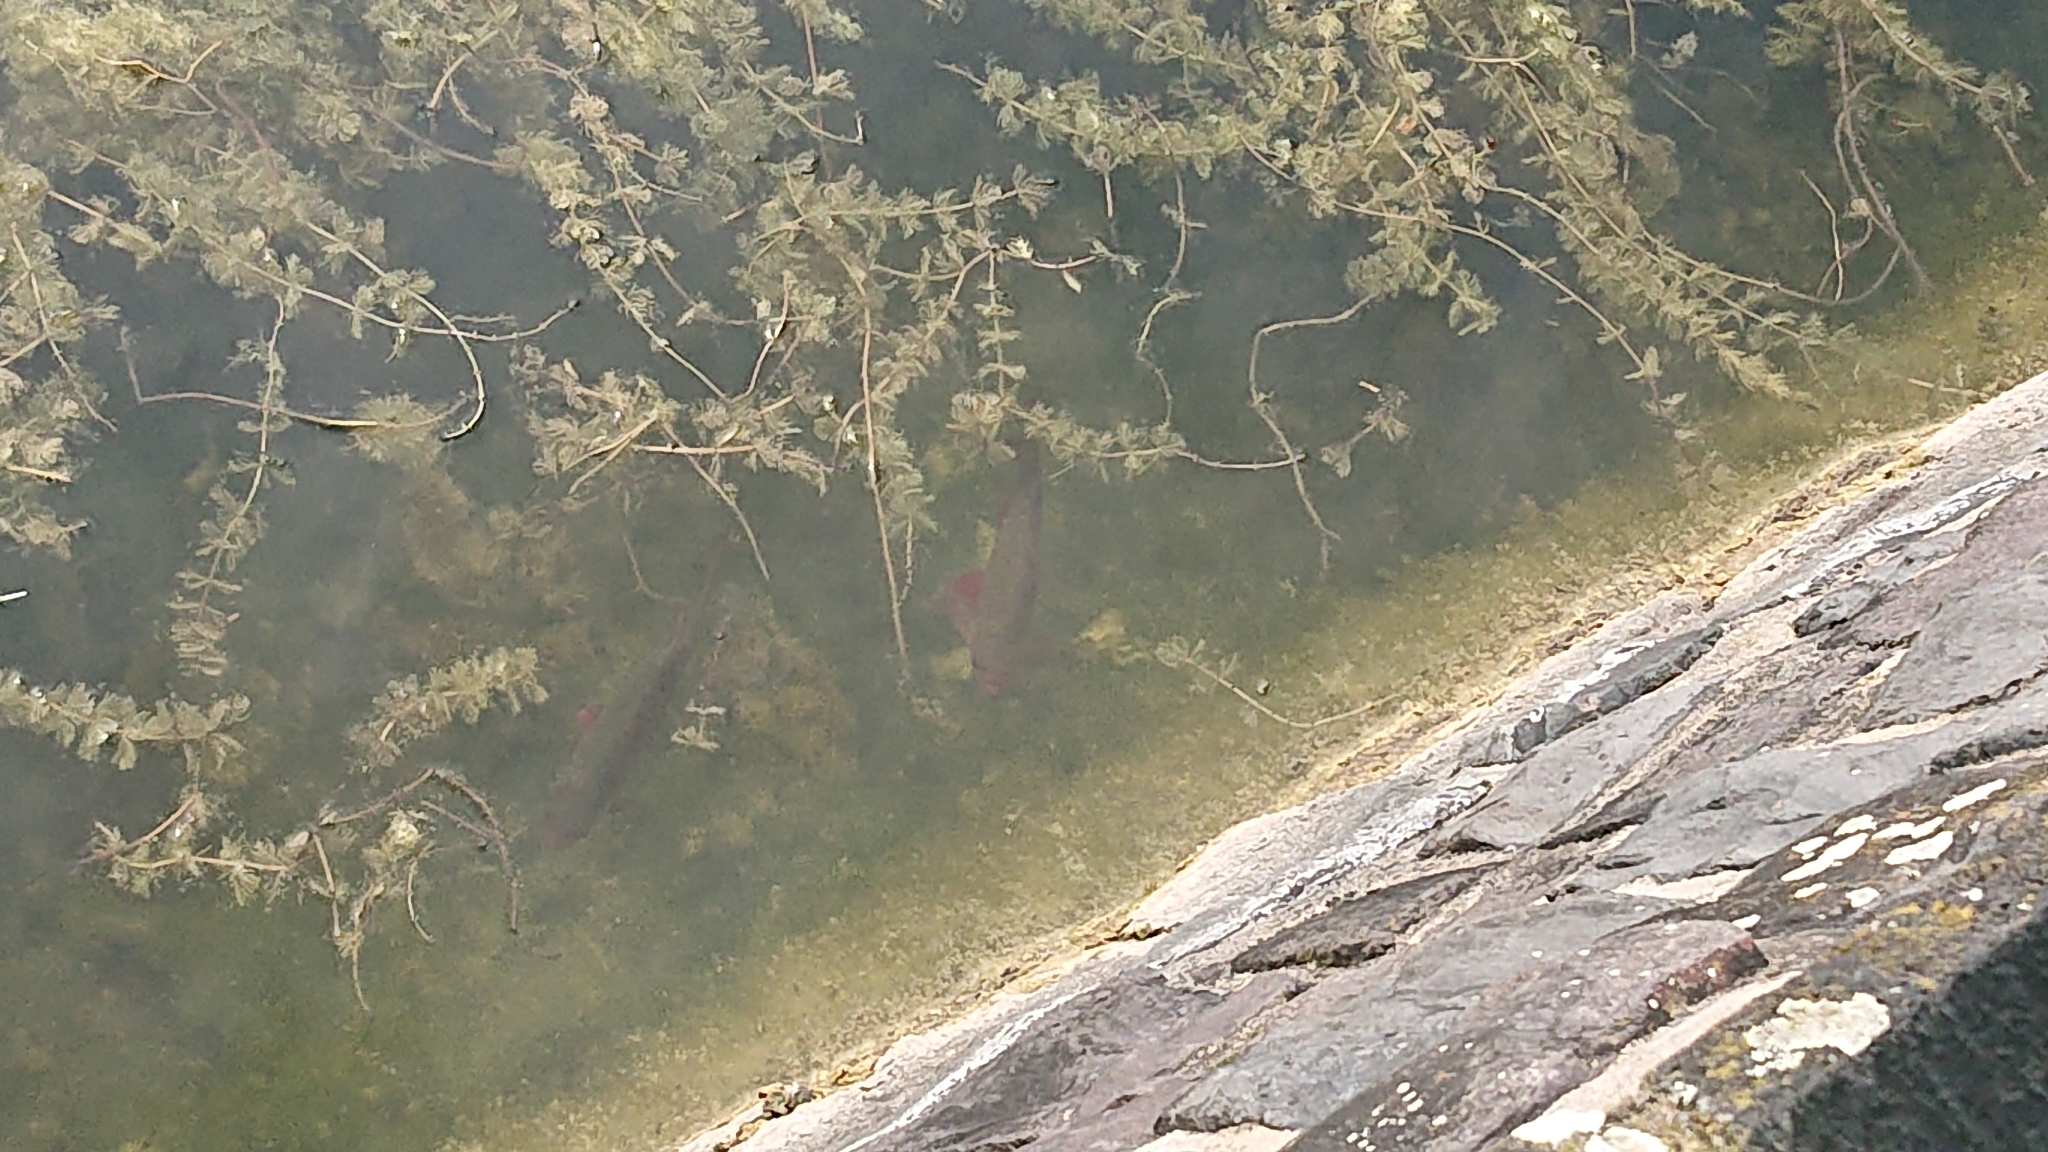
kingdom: Animalia
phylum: Chordata
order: Cypriniformes
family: Cyprinidae
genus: Scardinius
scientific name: Scardinius erythrophthalmus
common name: Rudd
